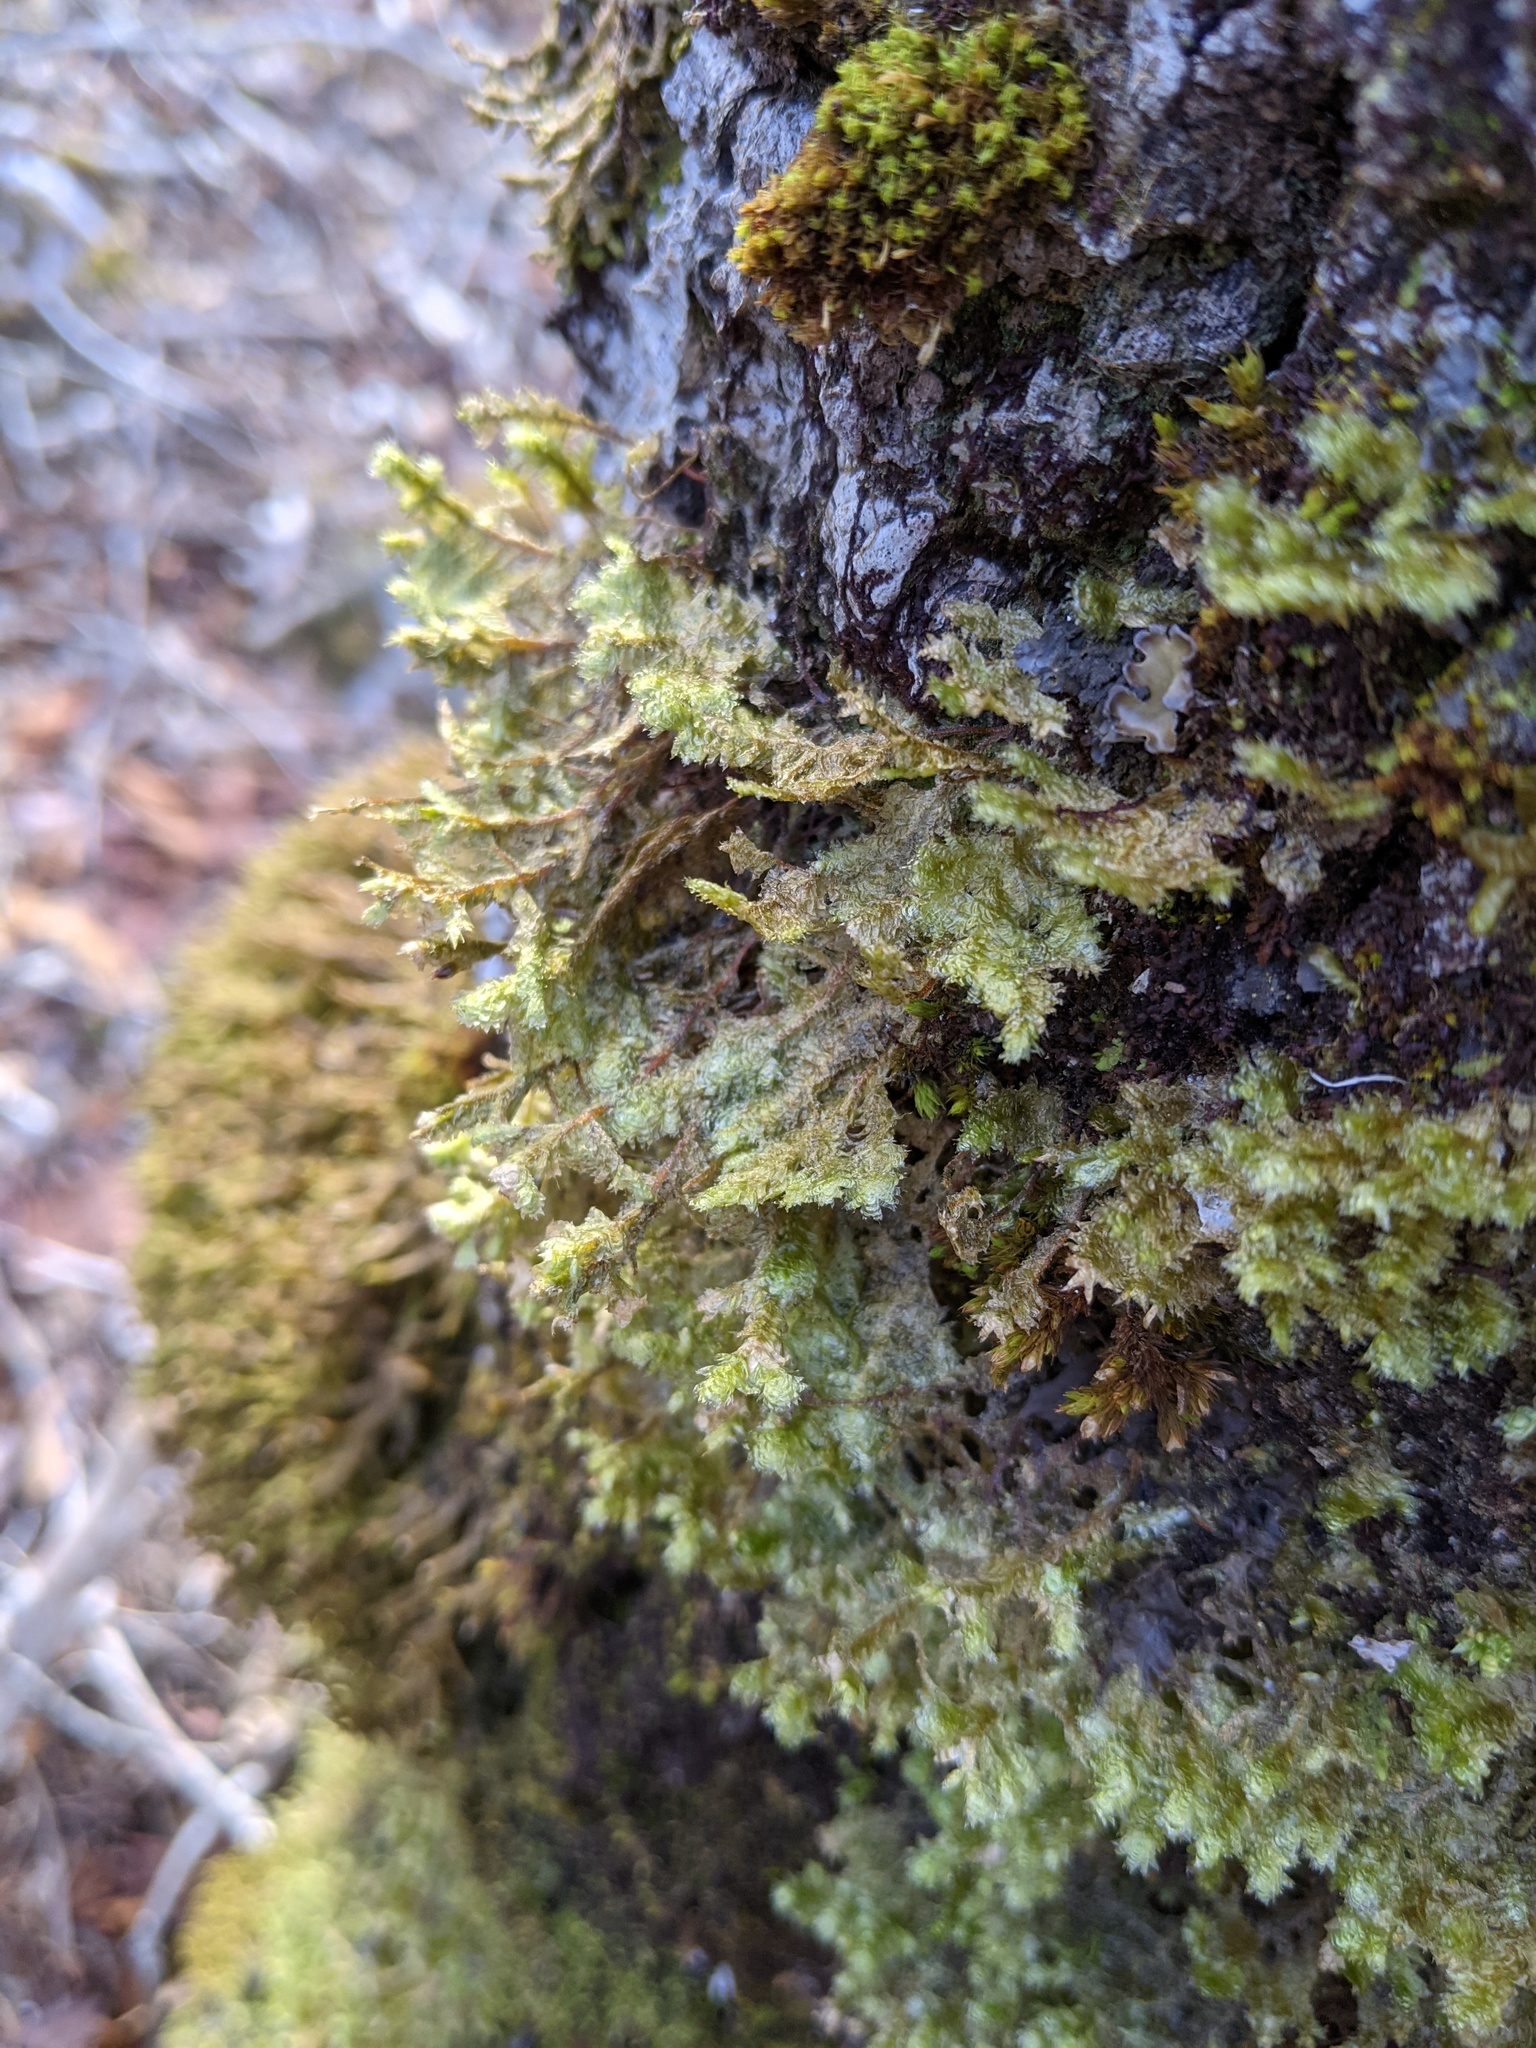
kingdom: Plantae
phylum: Bryophyta
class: Bryopsida
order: Hypnales
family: Neckeraceae
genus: Neckera
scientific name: Neckera pennata
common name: Feathery neckera
